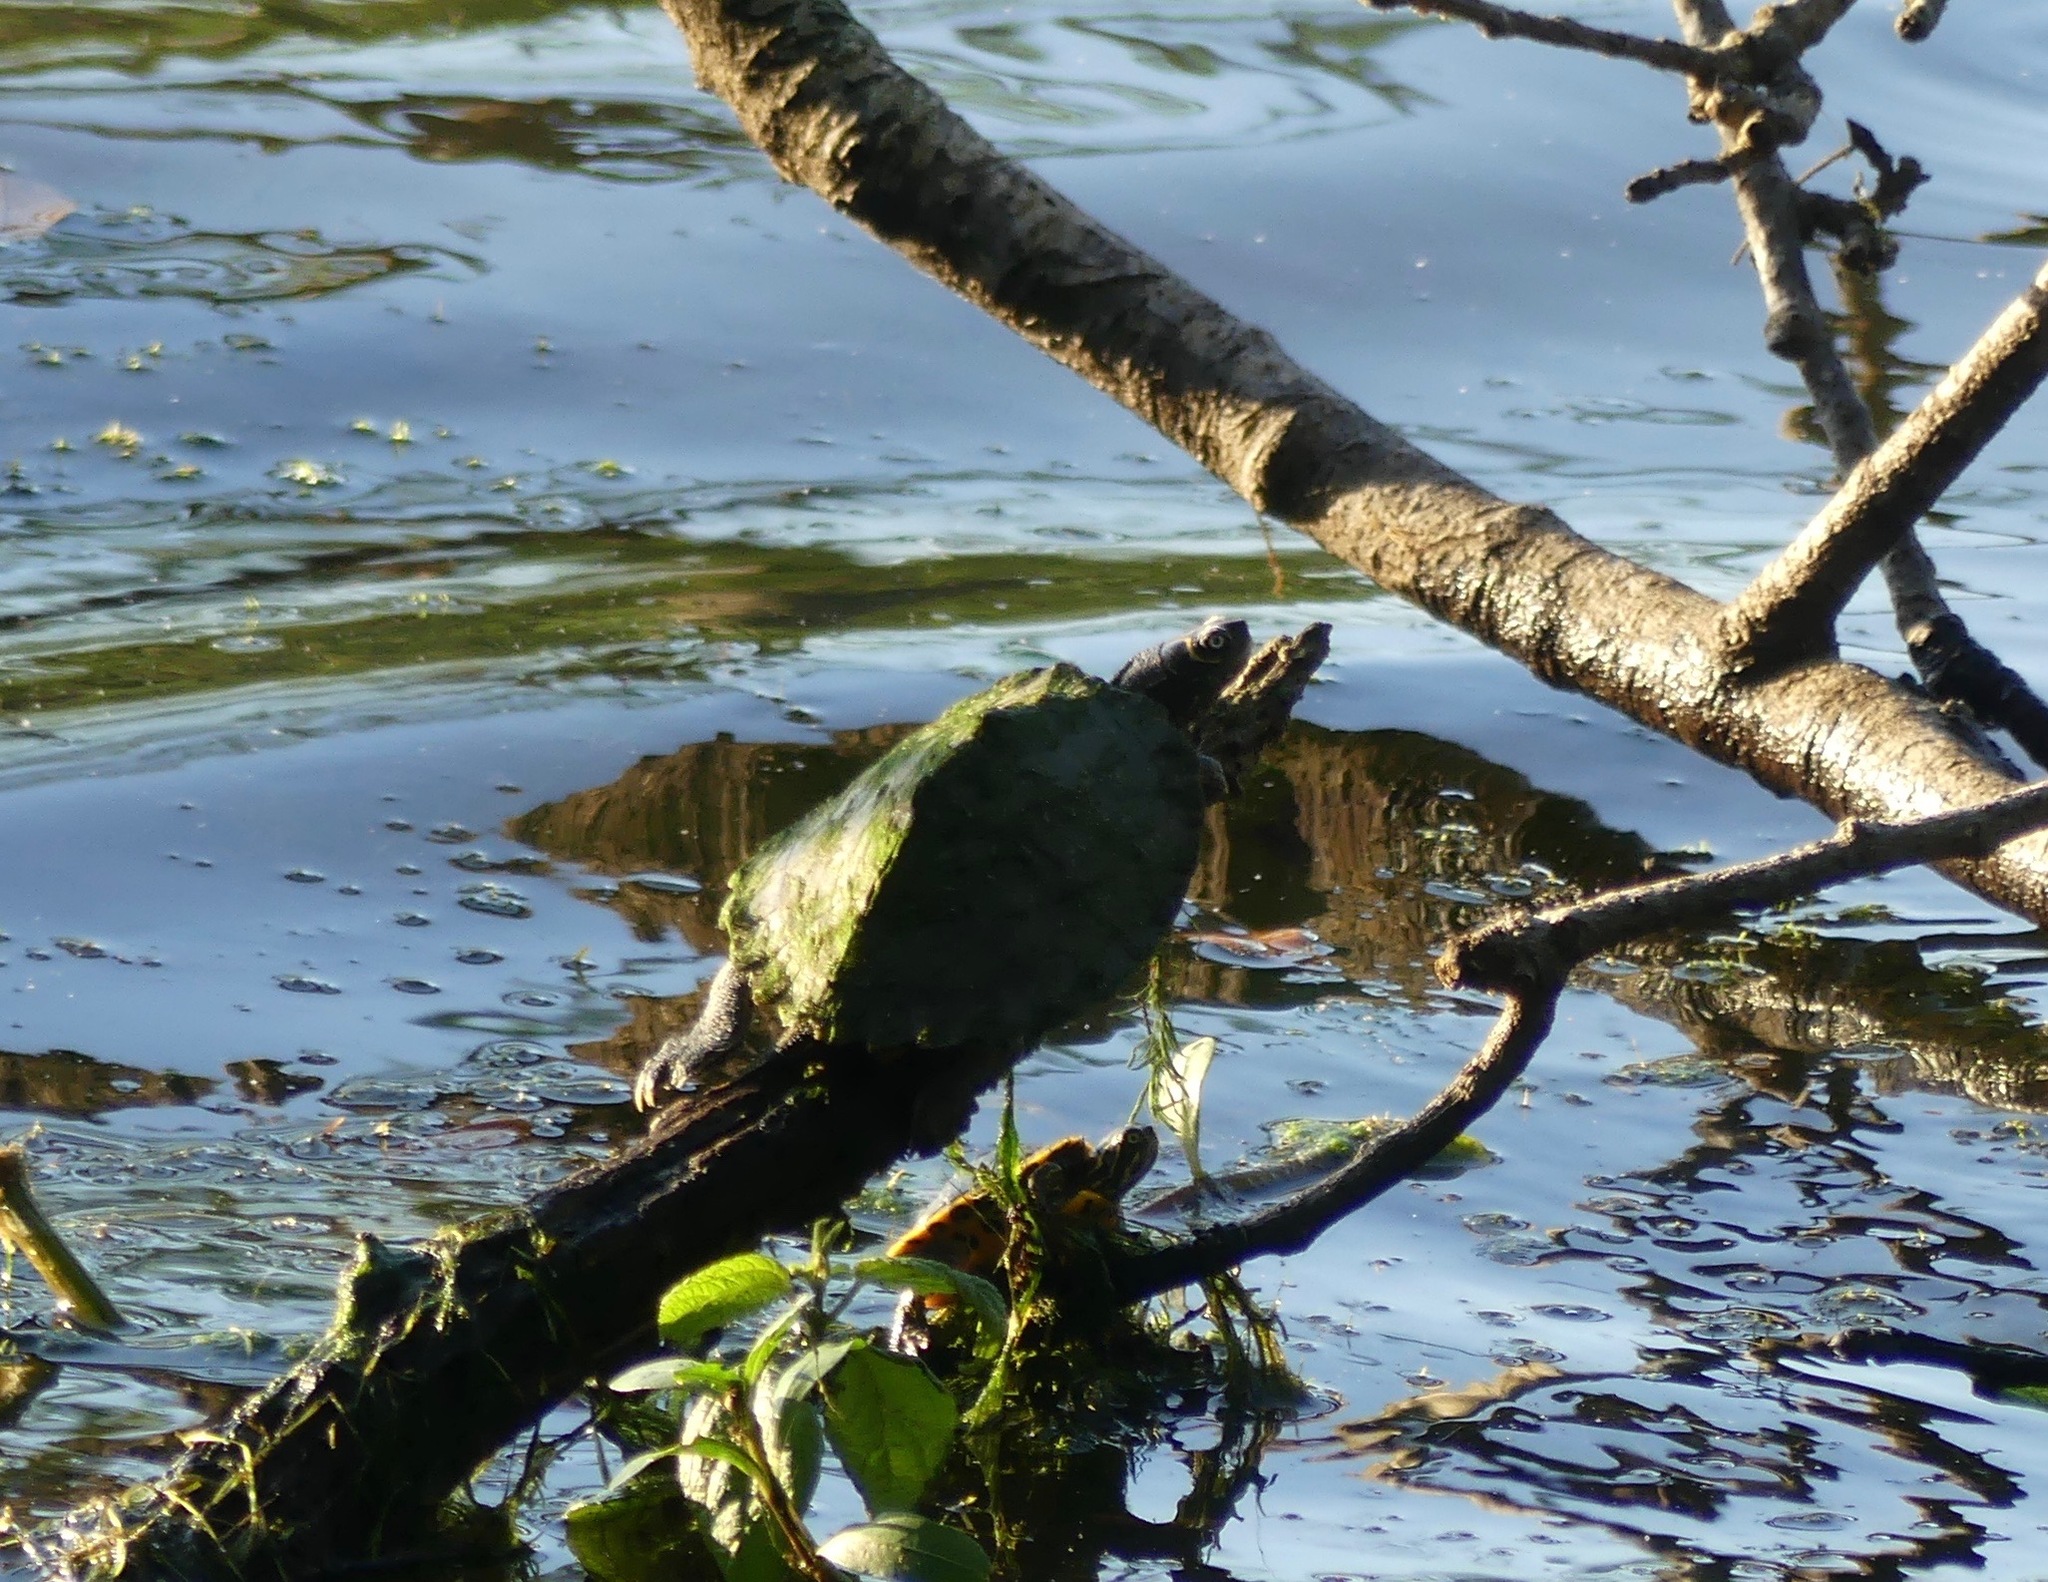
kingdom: Animalia
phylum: Chordata
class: Testudines
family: Emydidae
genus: Graptemys
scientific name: Graptemys pseudogeographica
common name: False map turtle
